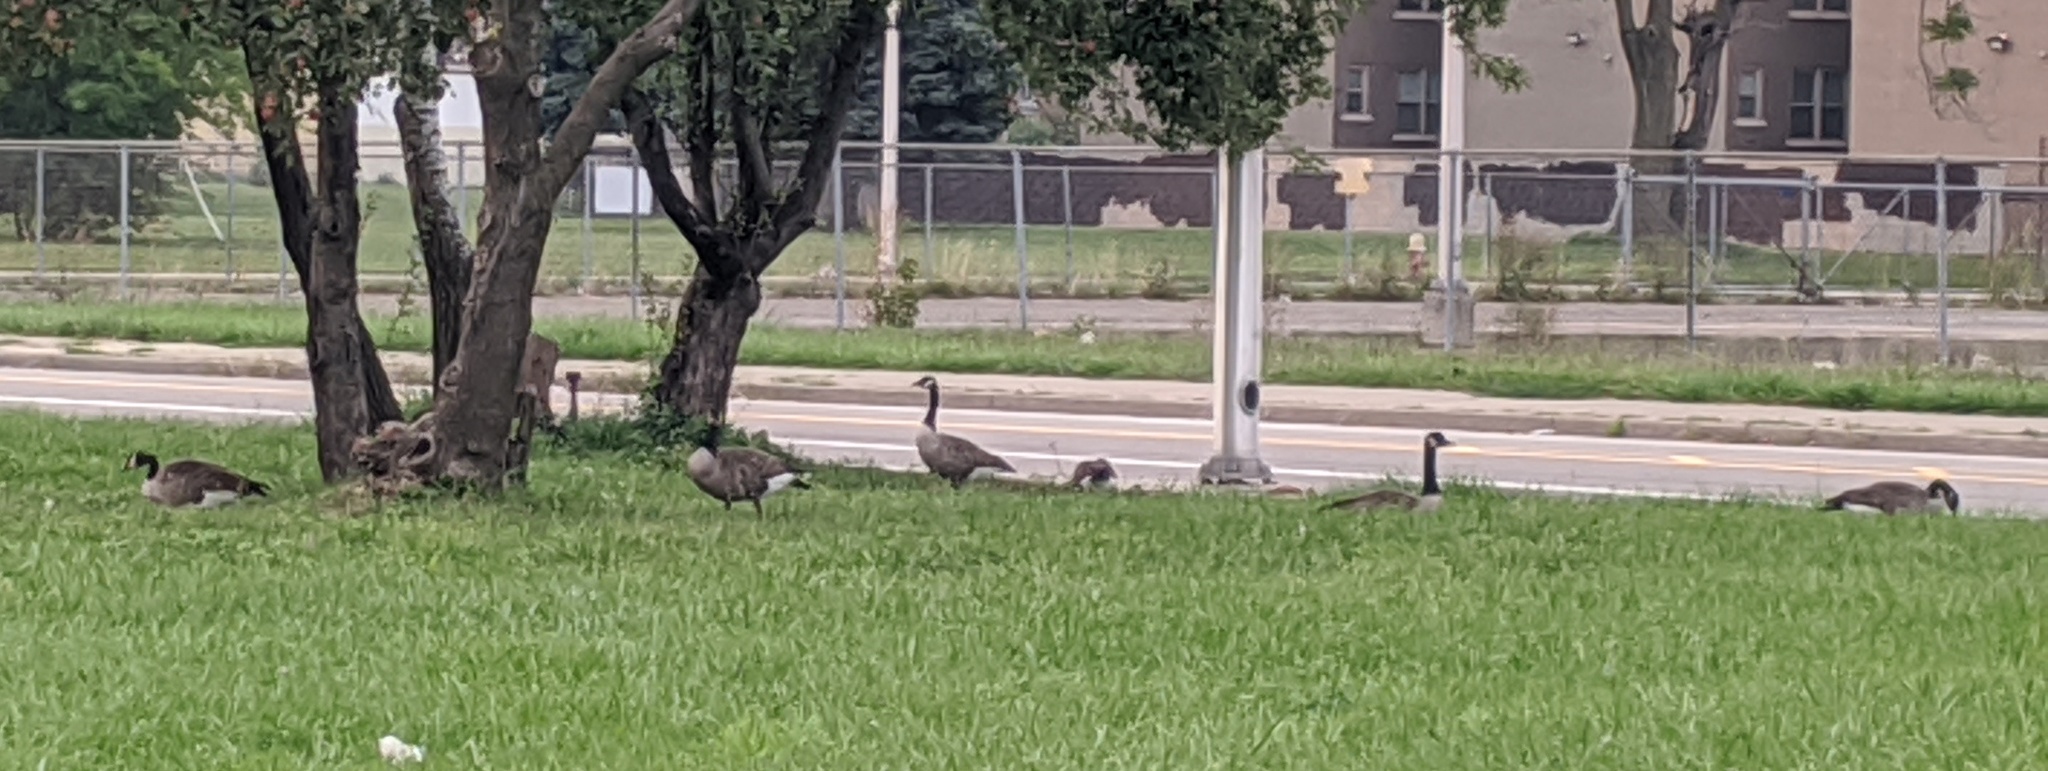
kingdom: Animalia
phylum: Chordata
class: Aves
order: Anseriformes
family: Anatidae
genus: Branta
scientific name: Branta canadensis
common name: Canada goose
